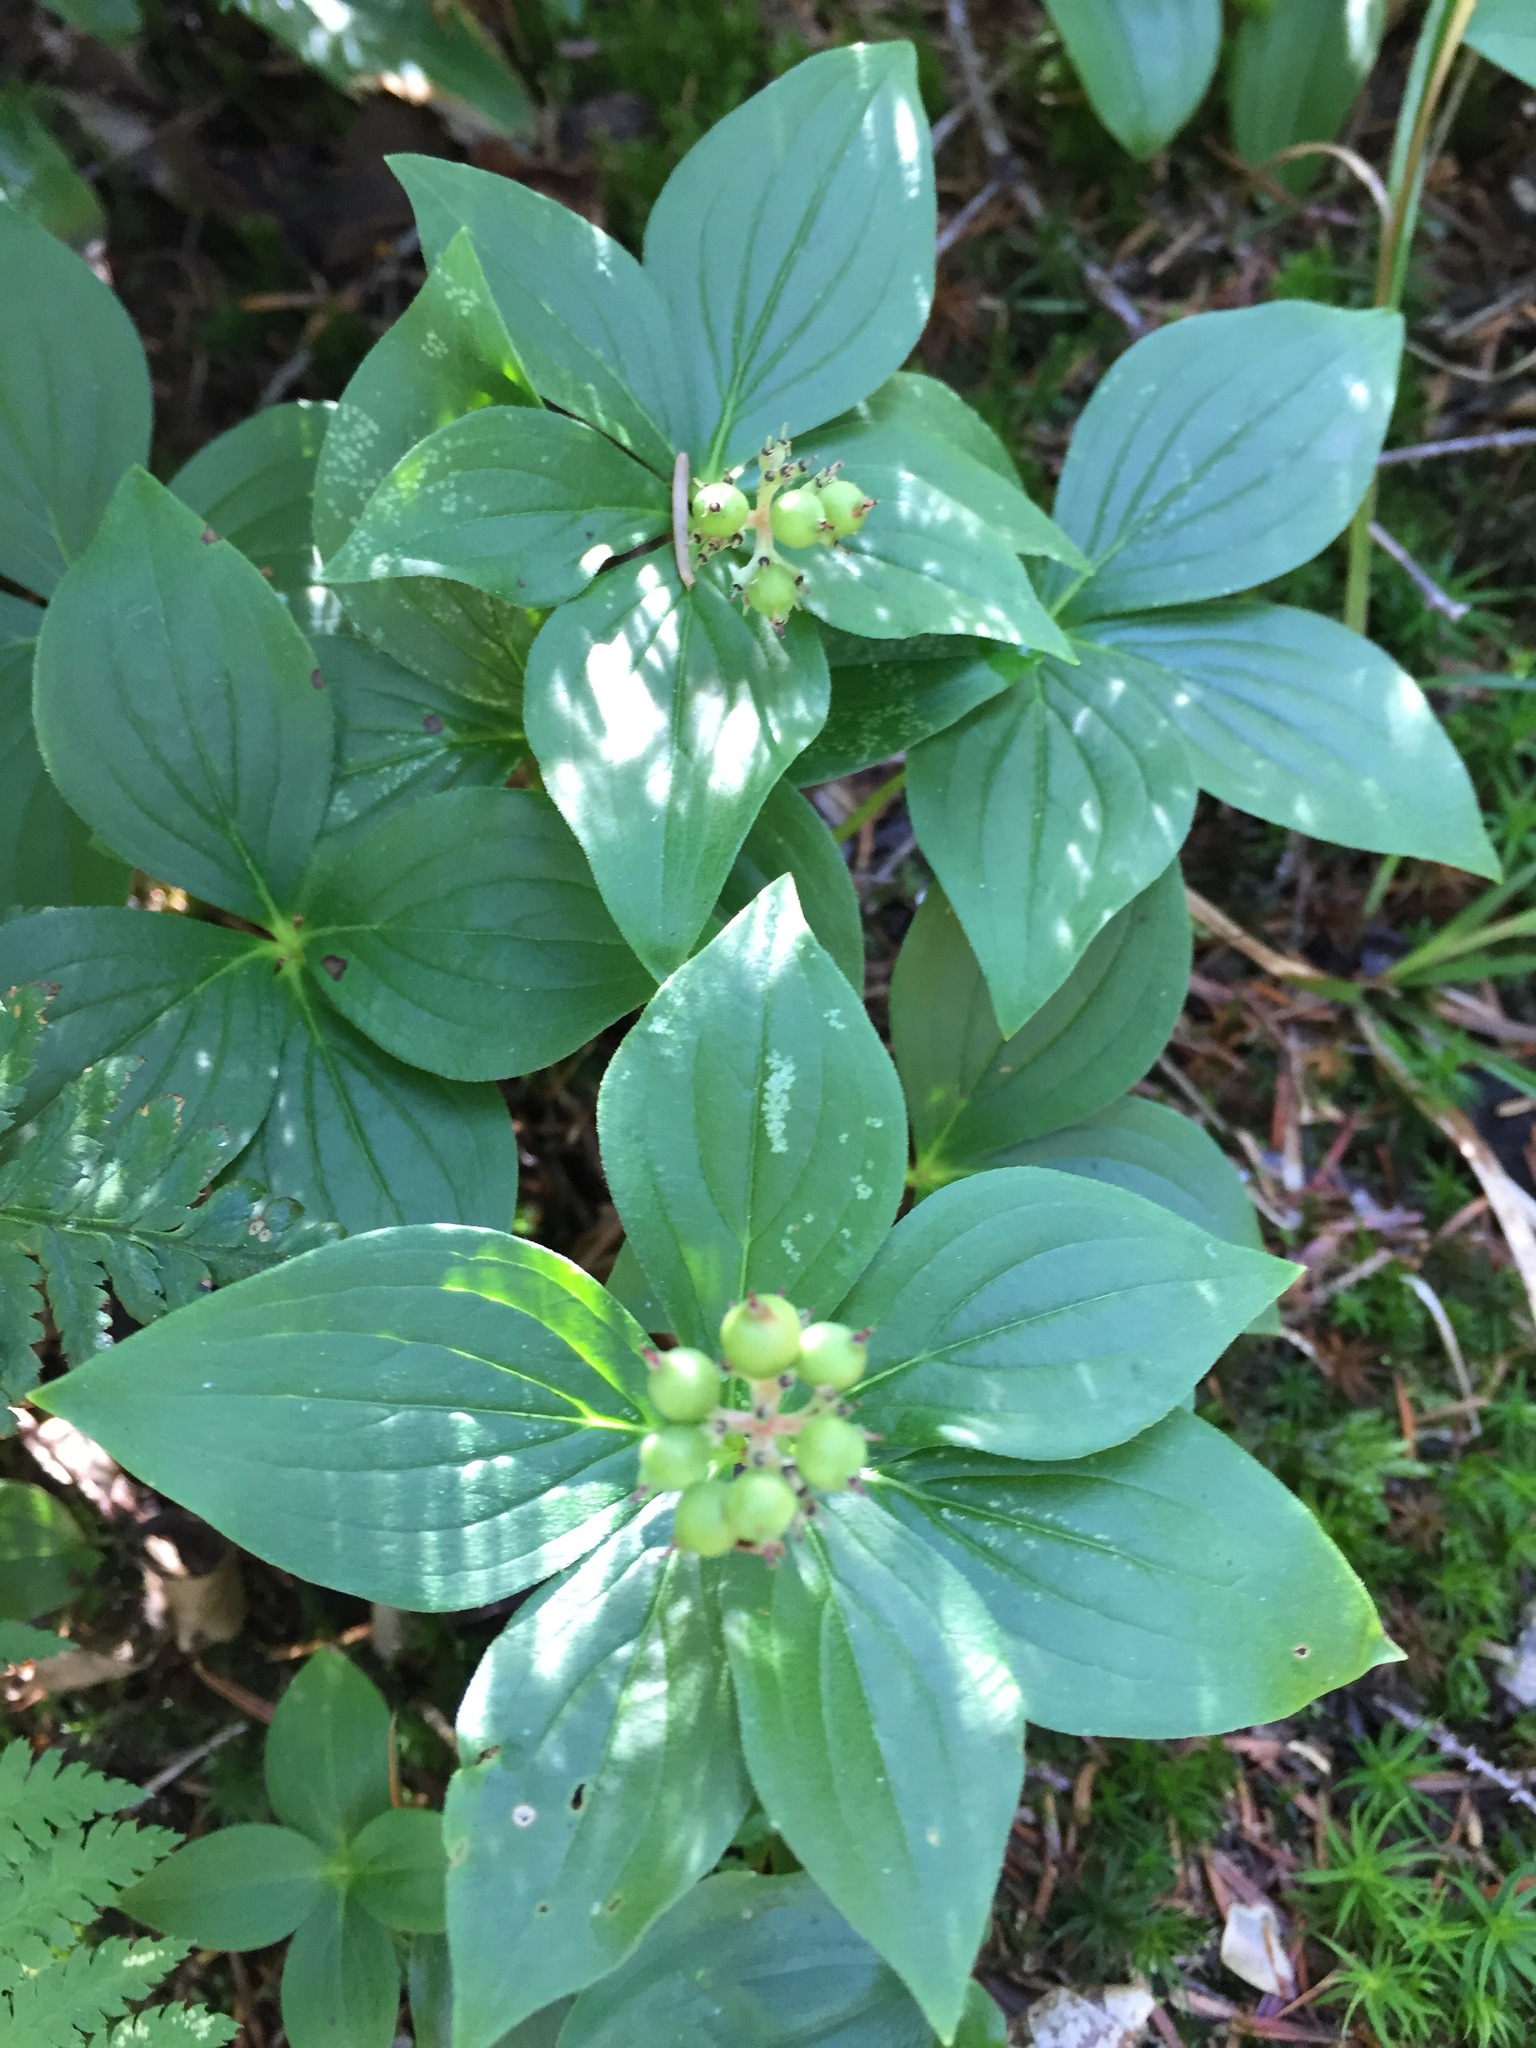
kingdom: Plantae
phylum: Tracheophyta
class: Magnoliopsida
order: Cornales
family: Cornaceae
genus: Cornus
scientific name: Cornus canadensis
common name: Creeping dogwood
